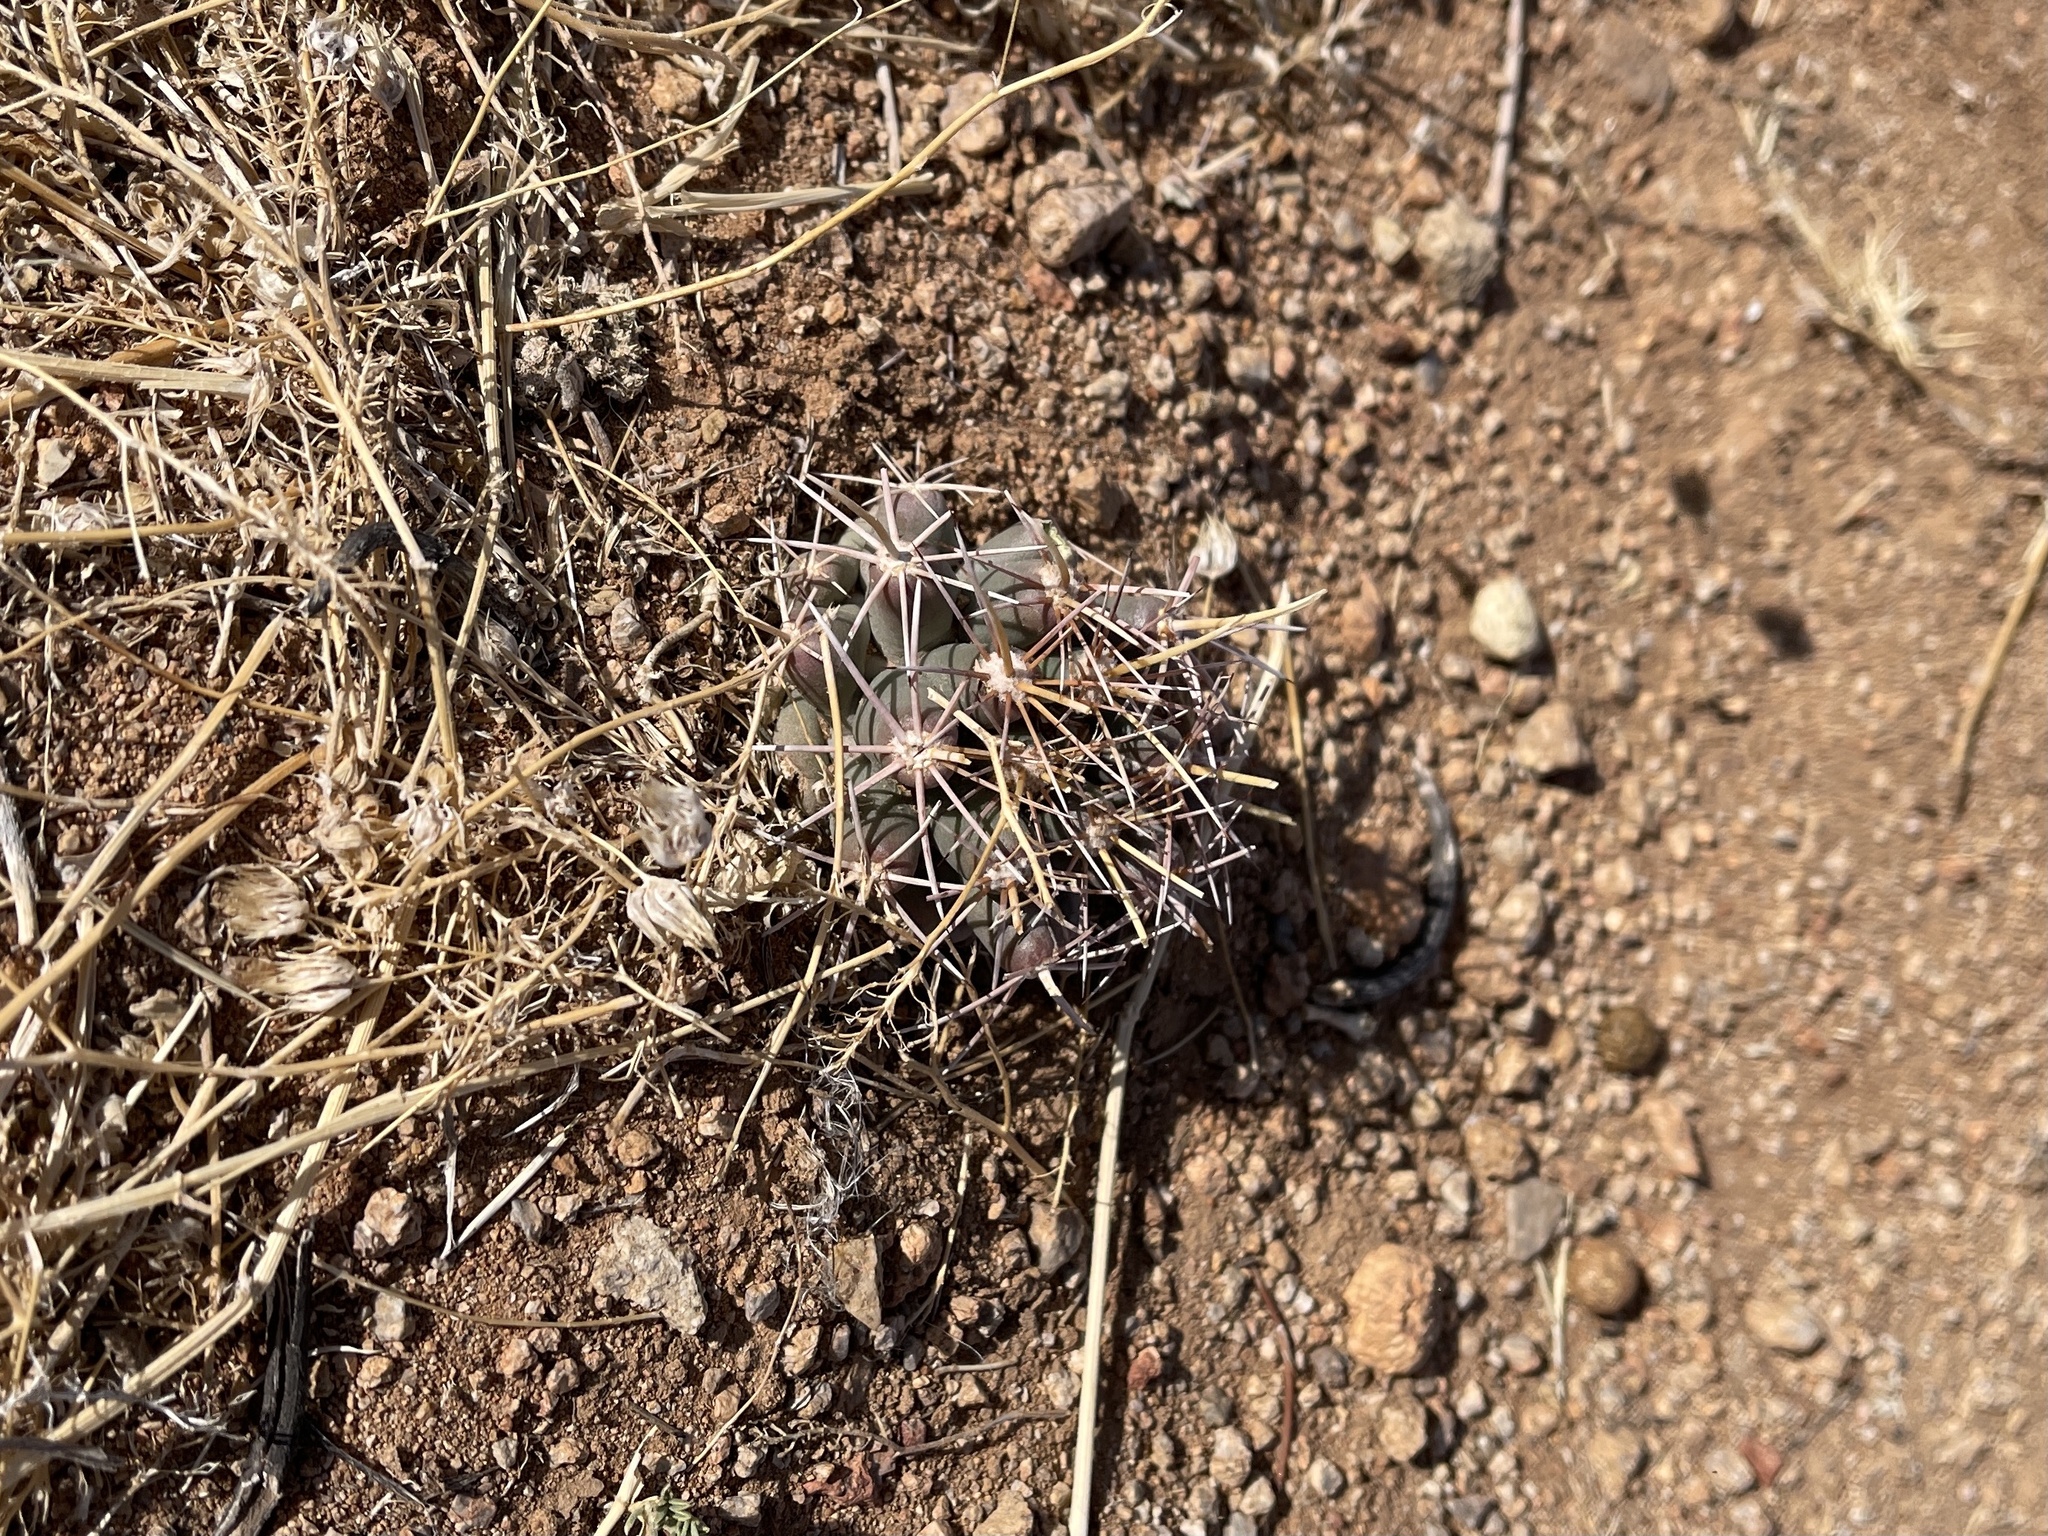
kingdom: Plantae
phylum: Tracheophyta
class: Magnoliopsida
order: Caryophyllales
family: Cactaceae
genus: Coryphantha
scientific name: Coryphantha robustispina
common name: Pima pineapple cactus
